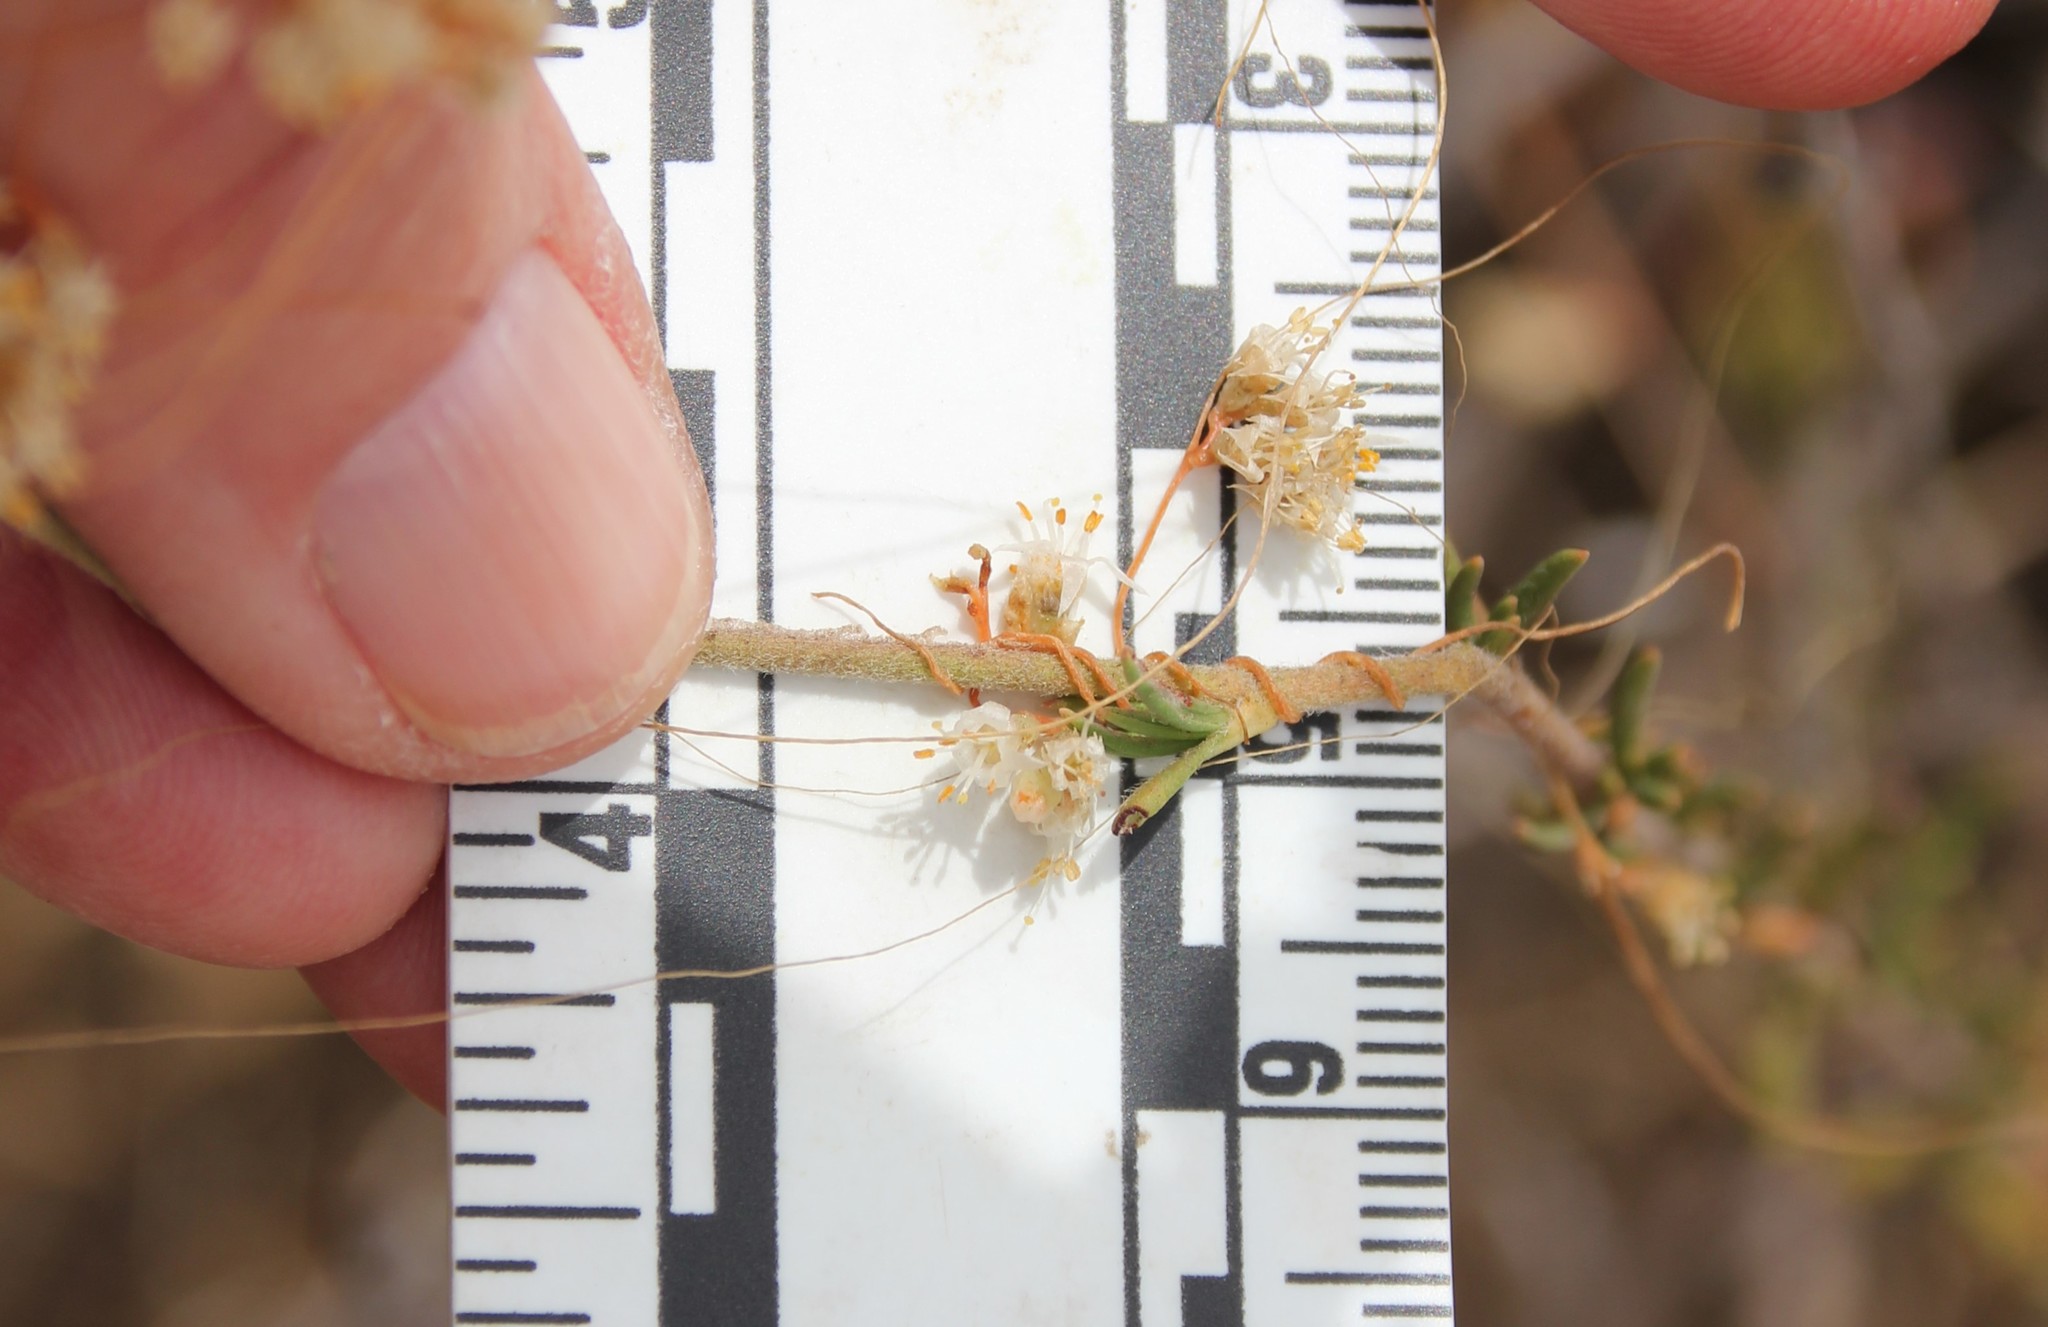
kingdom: Plantae
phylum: Tracheophyta
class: Magnoliopsida
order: Solanales
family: Convolvulaceae
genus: Cuscuta
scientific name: Cuscuta californica
